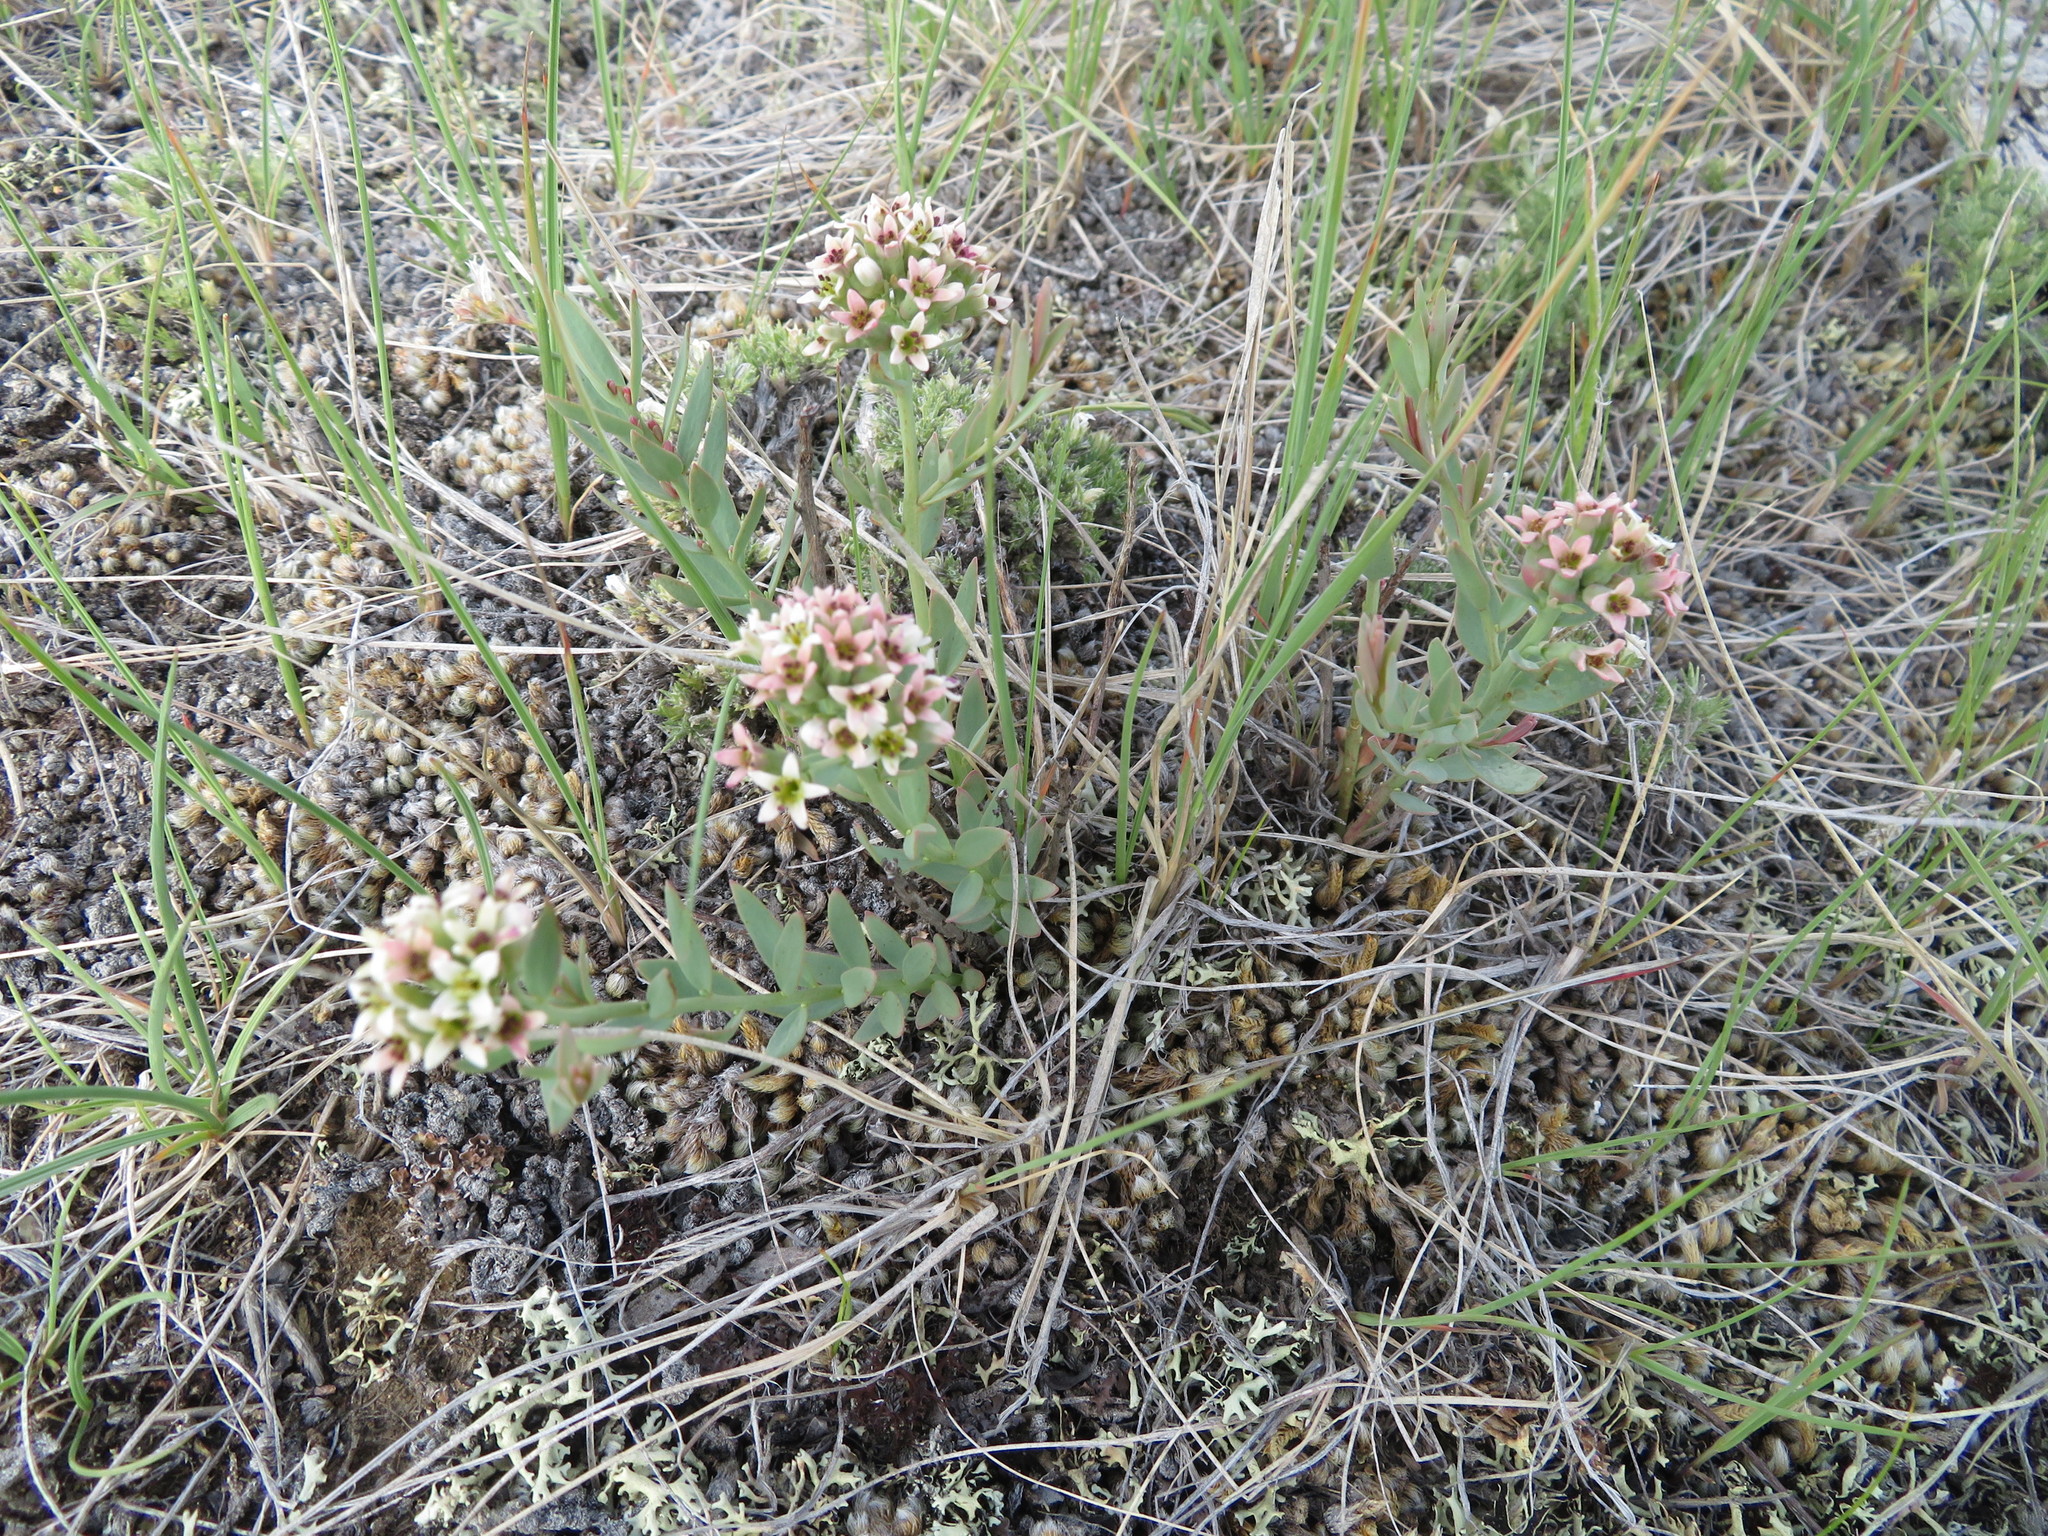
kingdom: Plantae
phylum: Tracheophyta
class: Magnoliopsida
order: Santalales
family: Comandraceae
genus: Comandra
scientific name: Comandra umbellata
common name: Bastard toadflax
